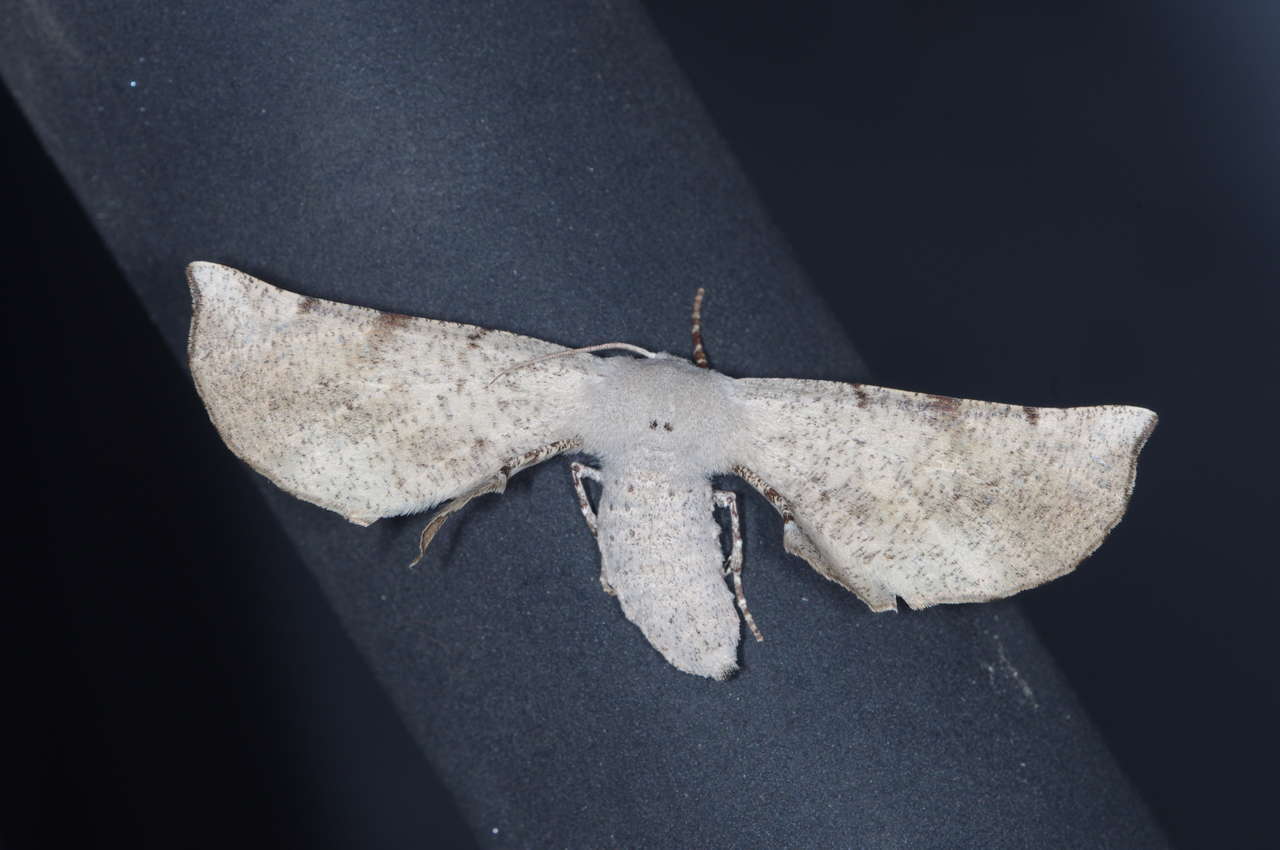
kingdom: Animalia
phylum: Arthropoda
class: Insecta
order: Lepidoptera
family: Geometridae
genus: Circopetes
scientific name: Circopetes obtusata
